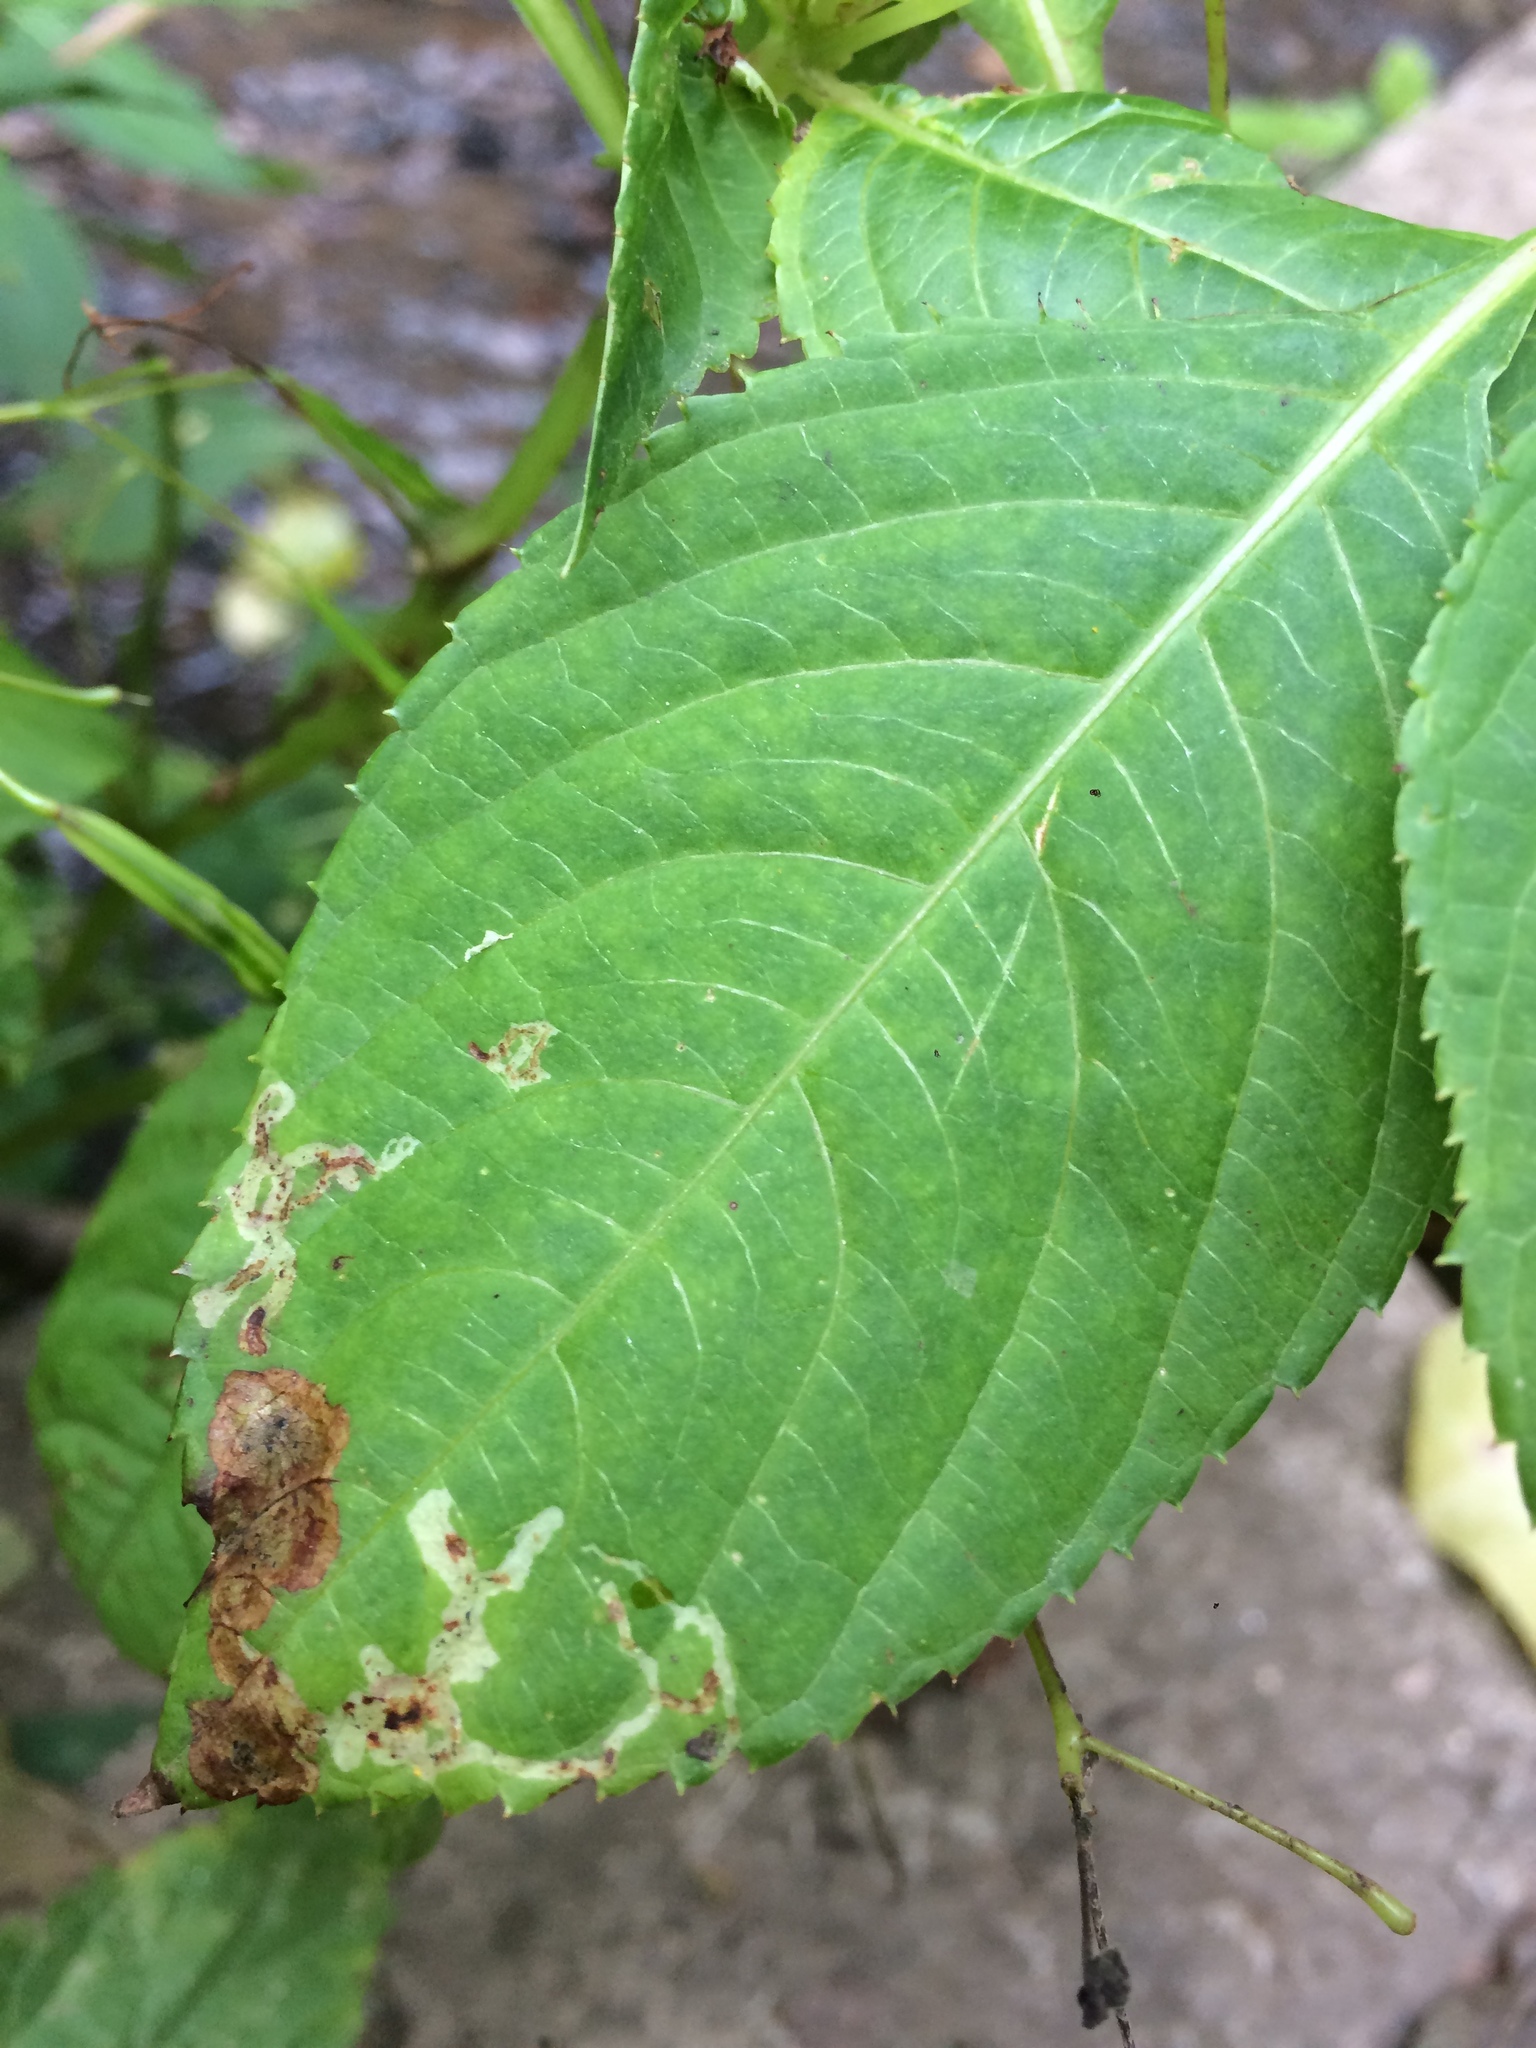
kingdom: Animalia
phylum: Arthropoda
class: Insecta
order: Diptera
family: Agromyzidae
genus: Phytoliriomyza
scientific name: Phytoliriomyza melampyga
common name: Jewelweed leaf-miner fly
